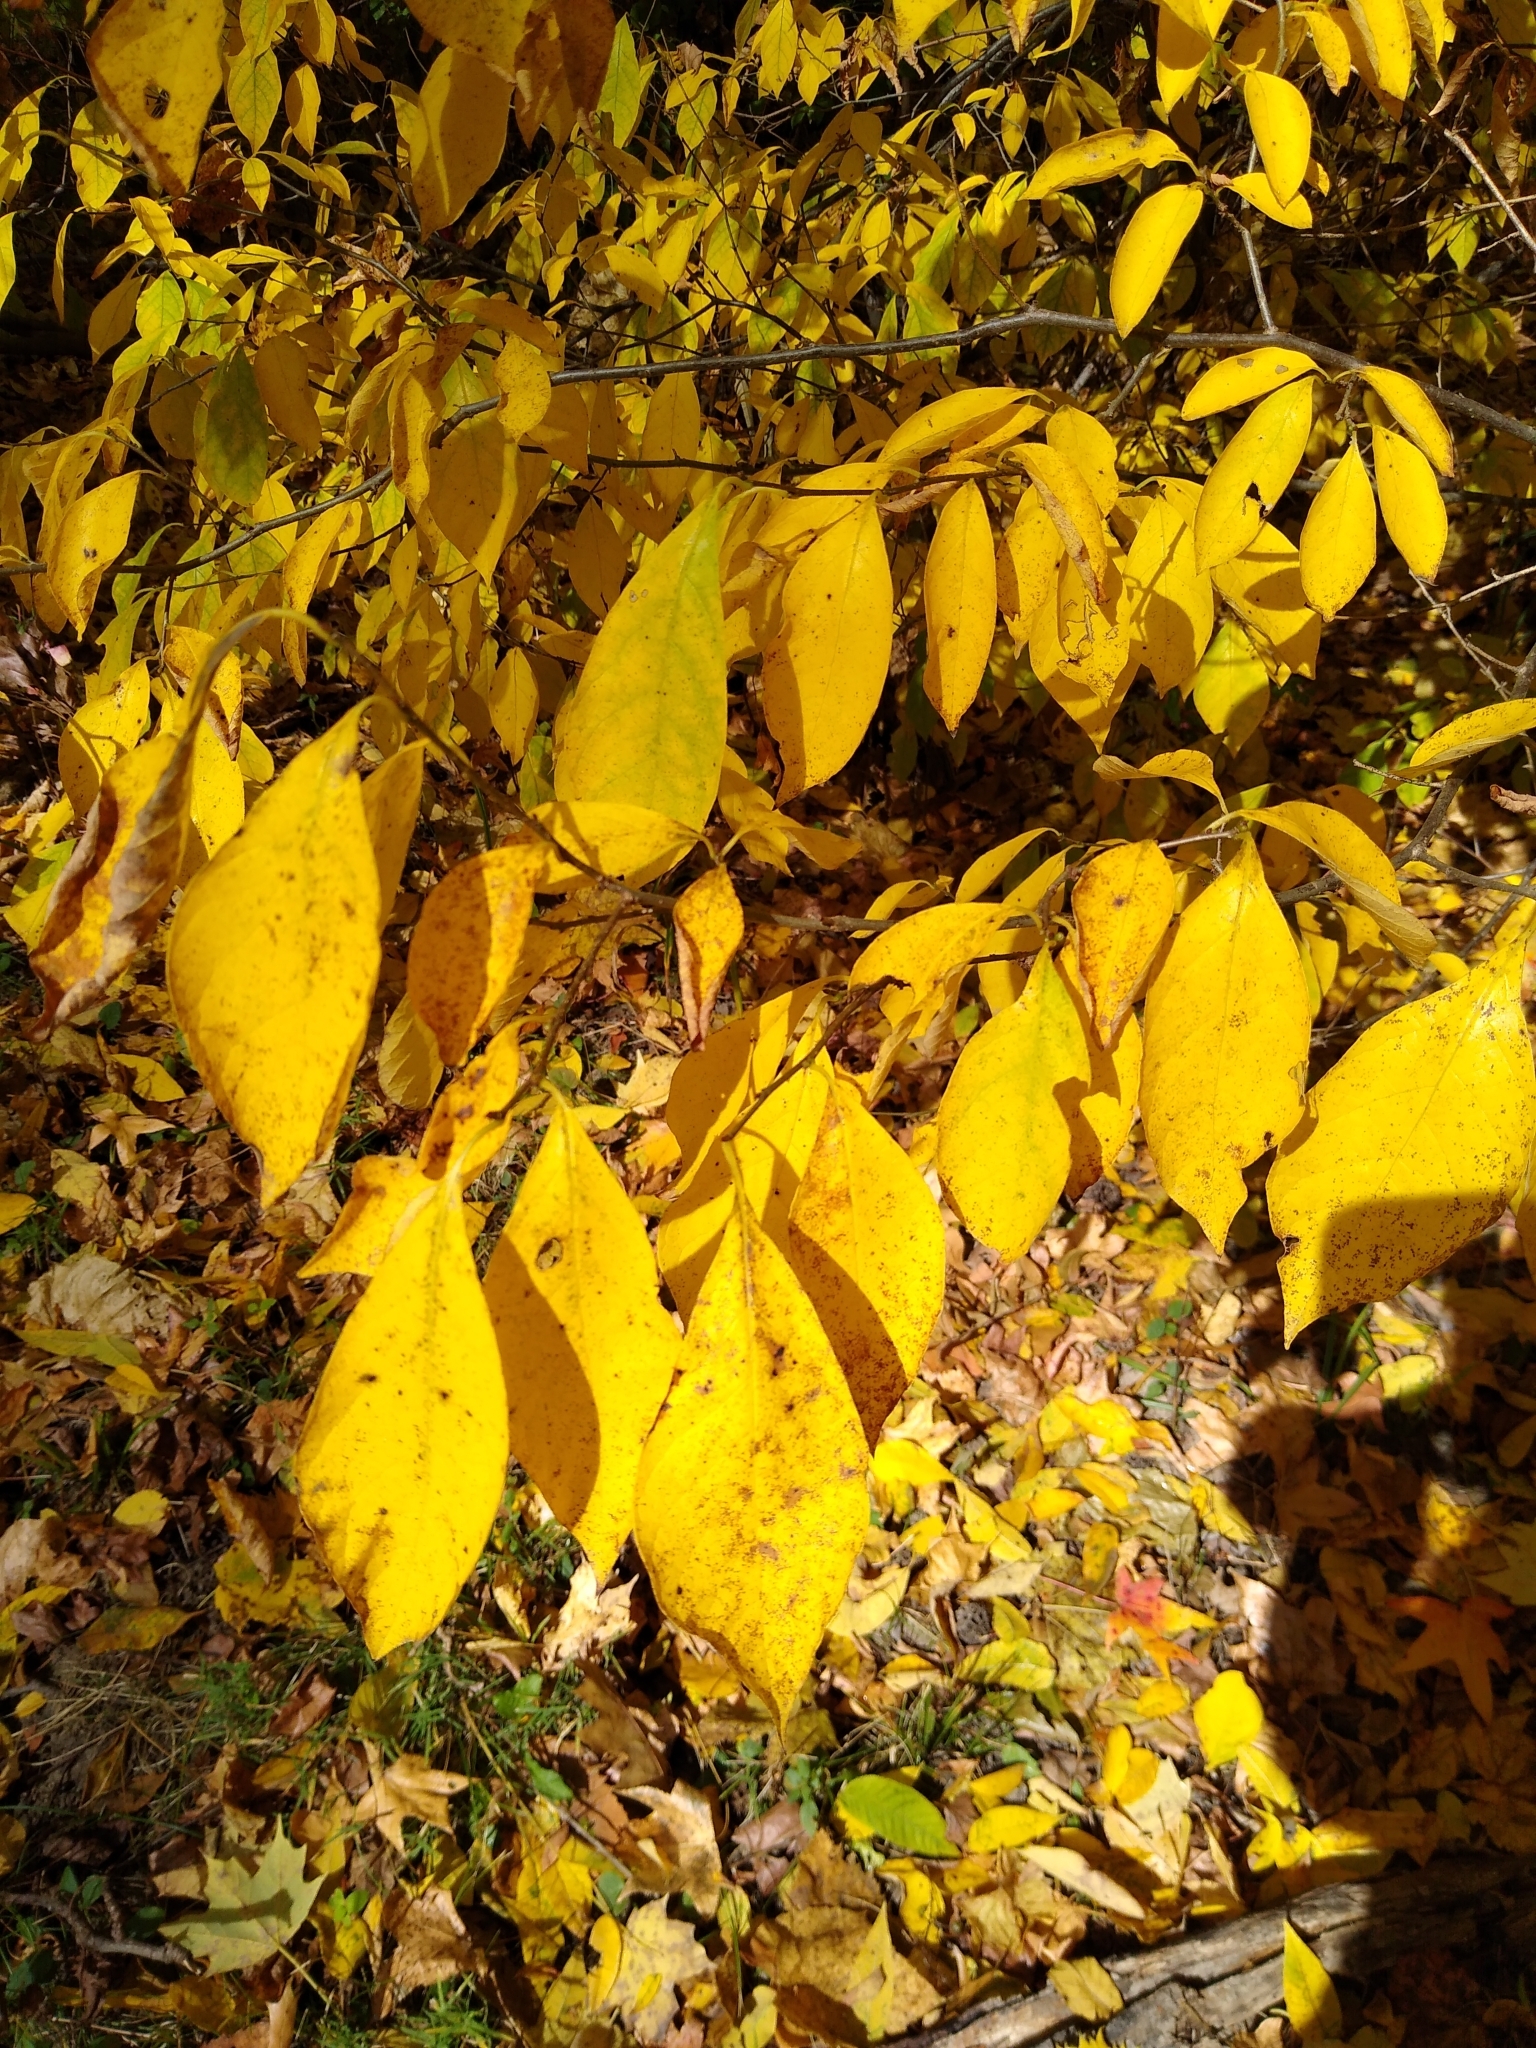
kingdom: Plantae
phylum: Tracheophyta
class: Magnoliopsida
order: Laurales
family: Lauraceae
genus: Lindera
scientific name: Lindera benzoin
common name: Spicebush
